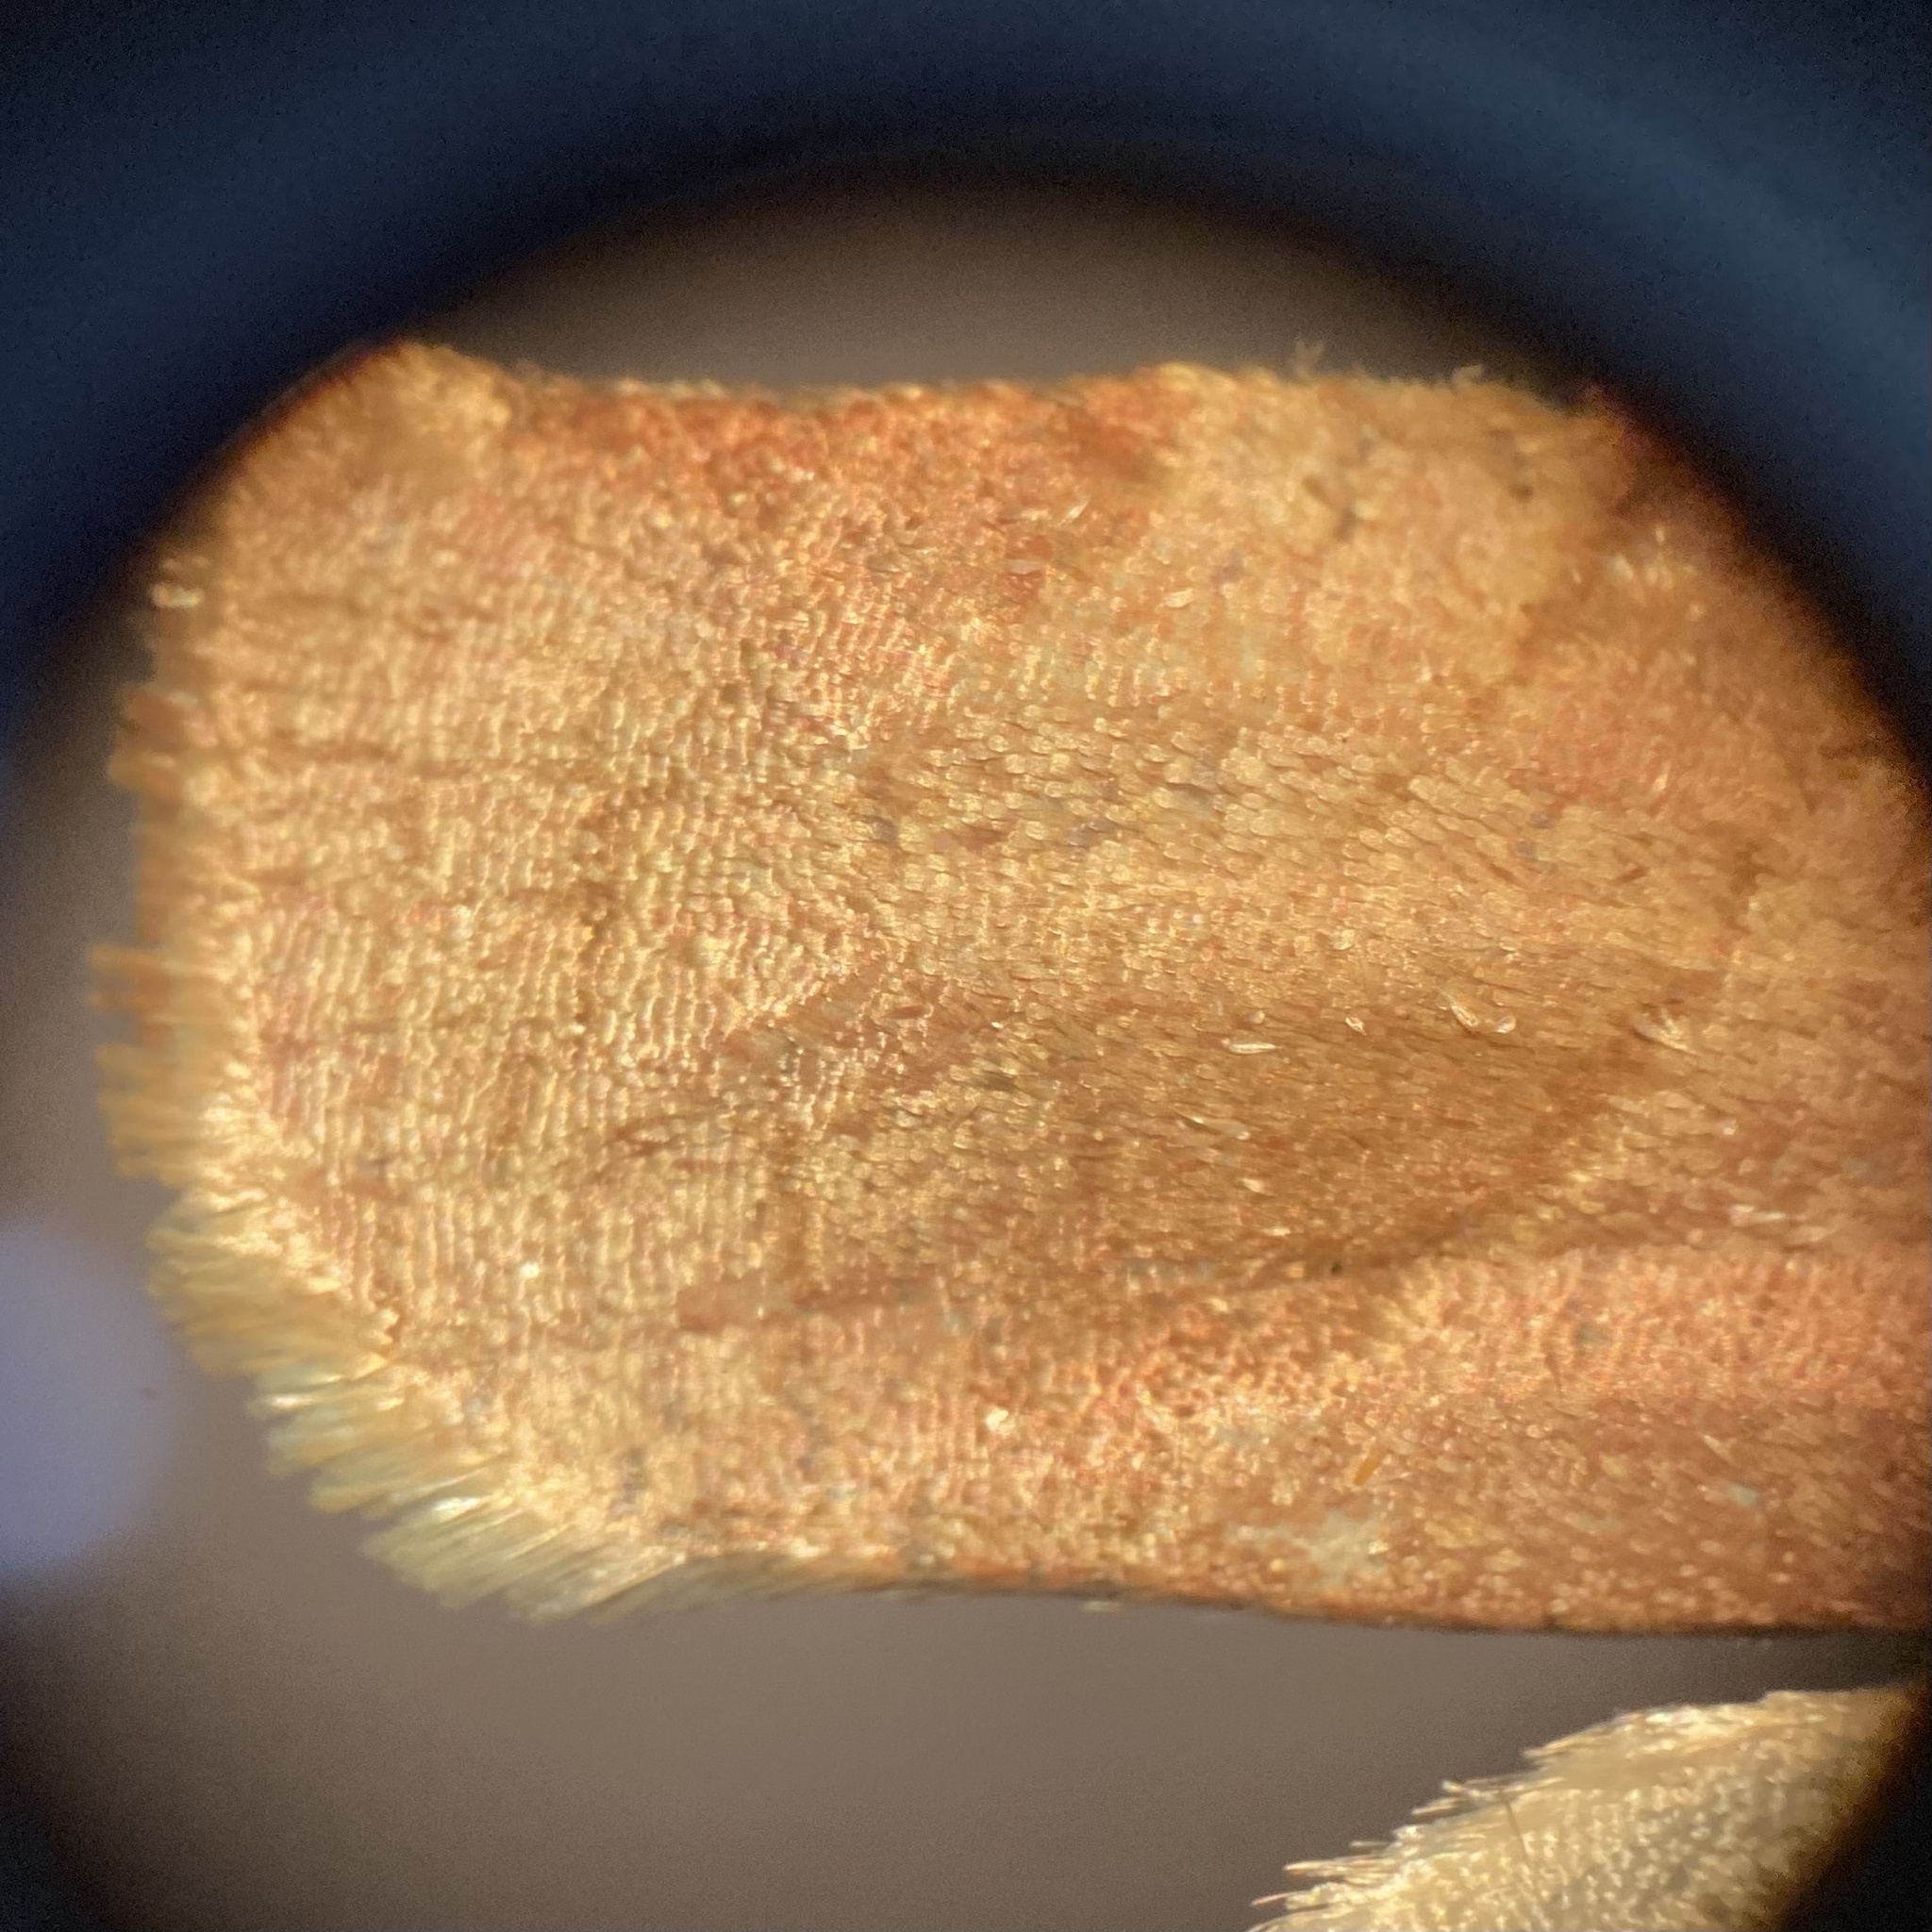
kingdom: Animalia
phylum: Arthropoda
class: Insecta
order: Lepidoptera
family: Tortricidae
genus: Choristoneura
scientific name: Choristoneura rosaceana
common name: Oblique-banded leafroller moth
